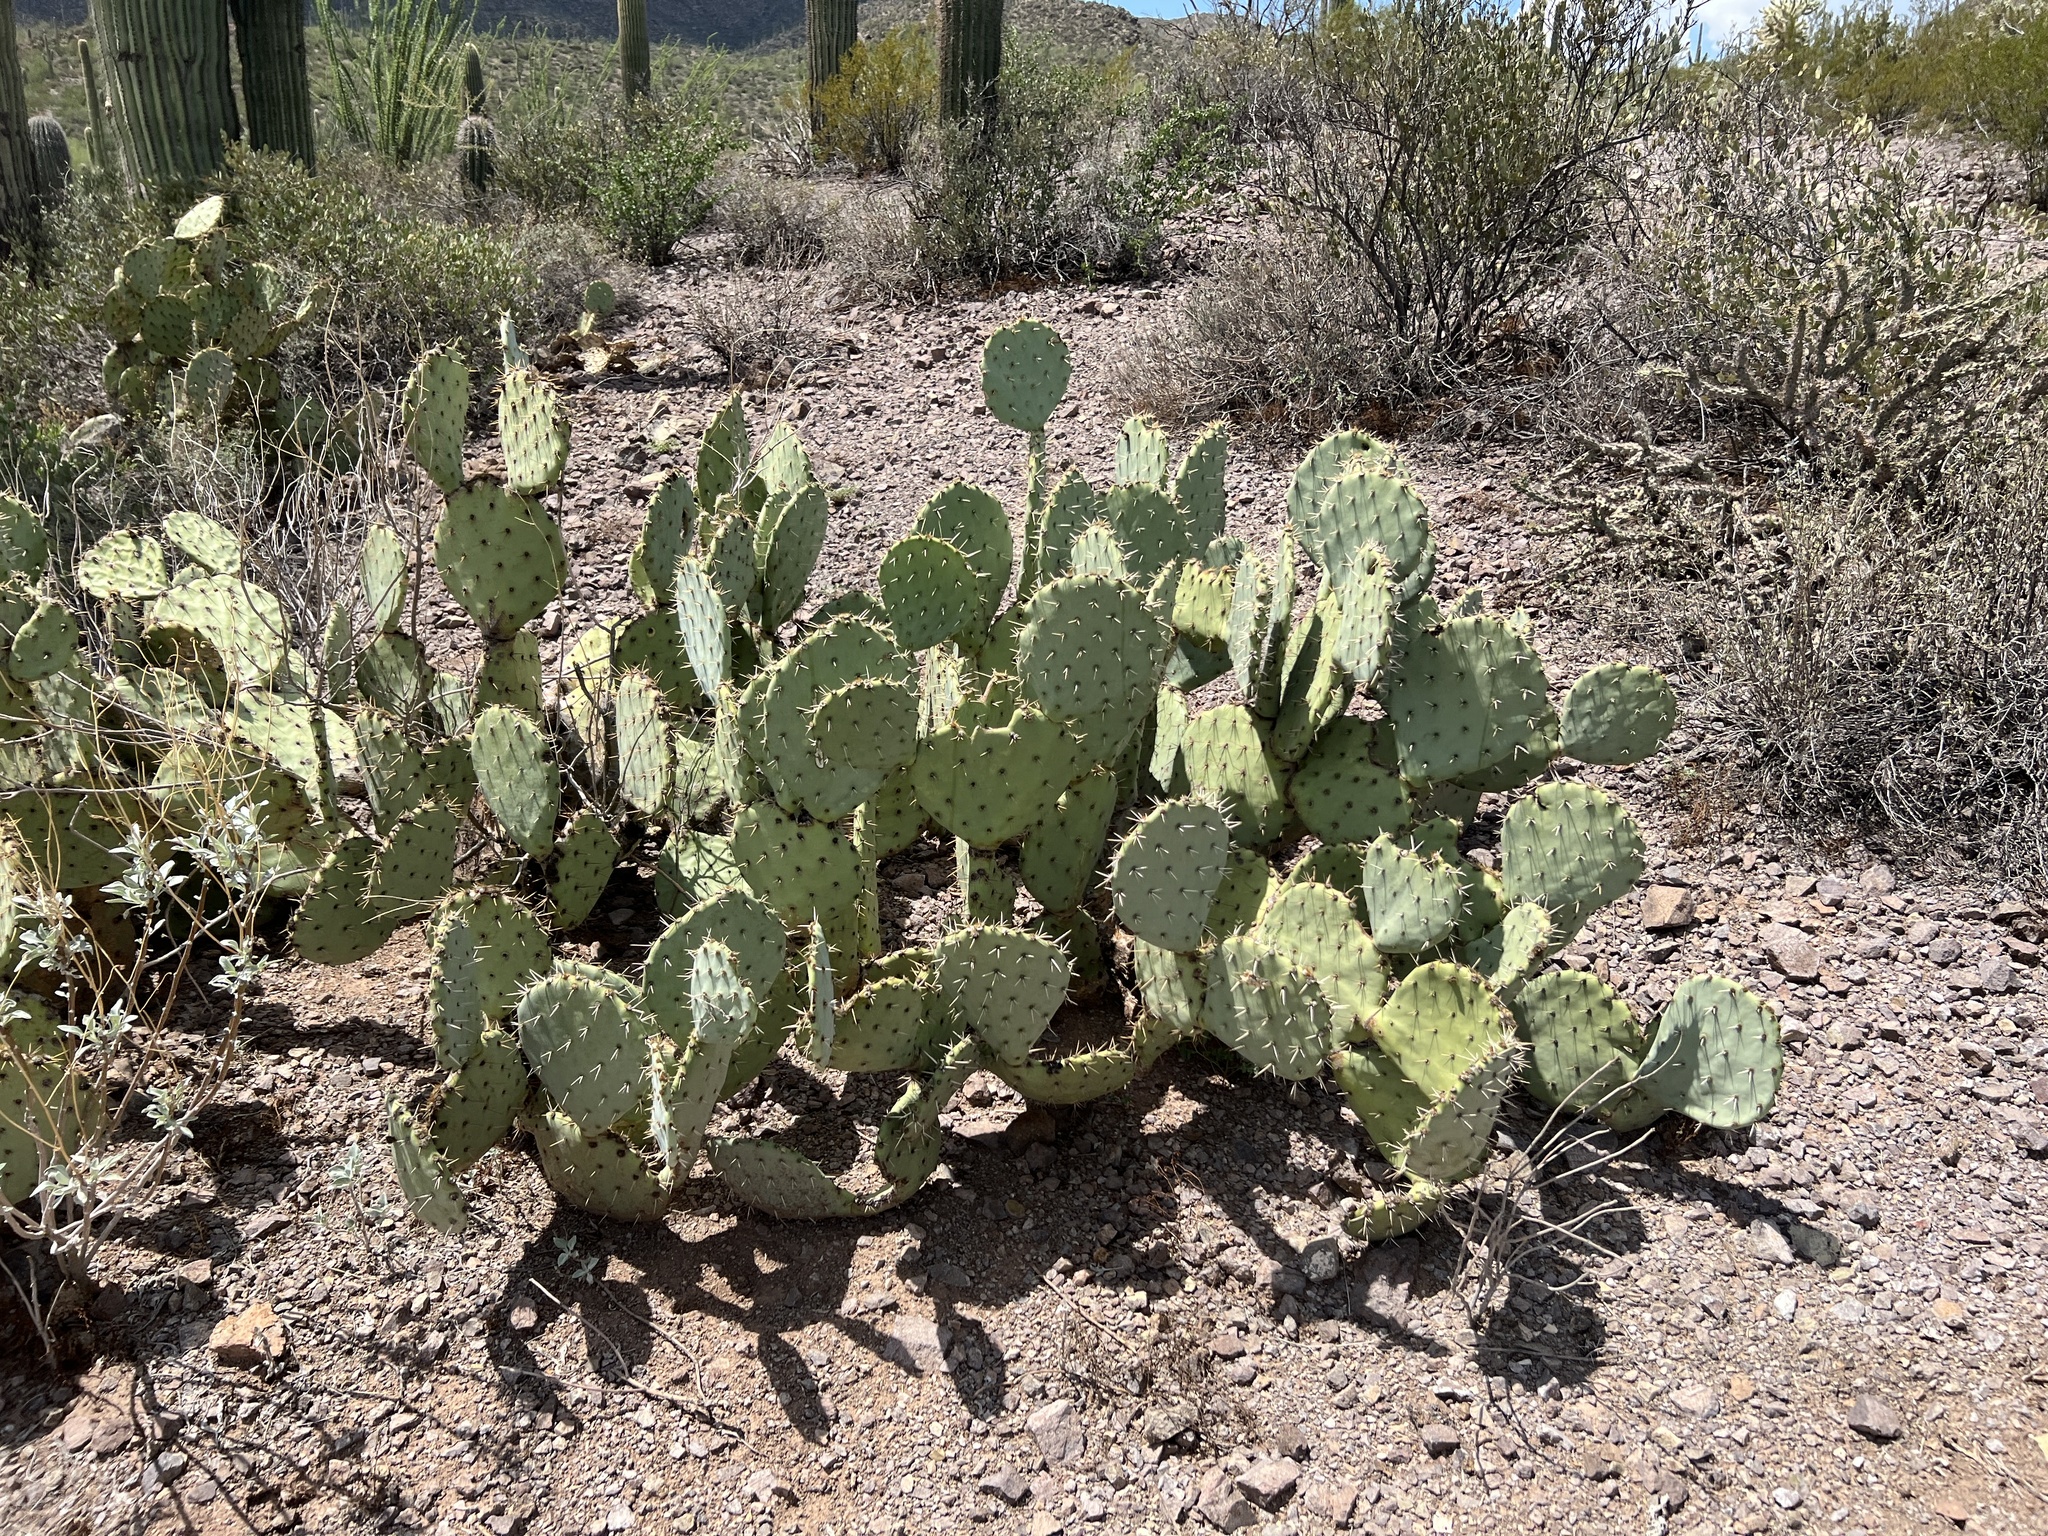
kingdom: Plantae
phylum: Tracheophyta
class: Magnoliopsida
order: Caryophyllales
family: Cactaceae
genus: Opuntia
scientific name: Opuntia engelmannii
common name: Cactus-apple
